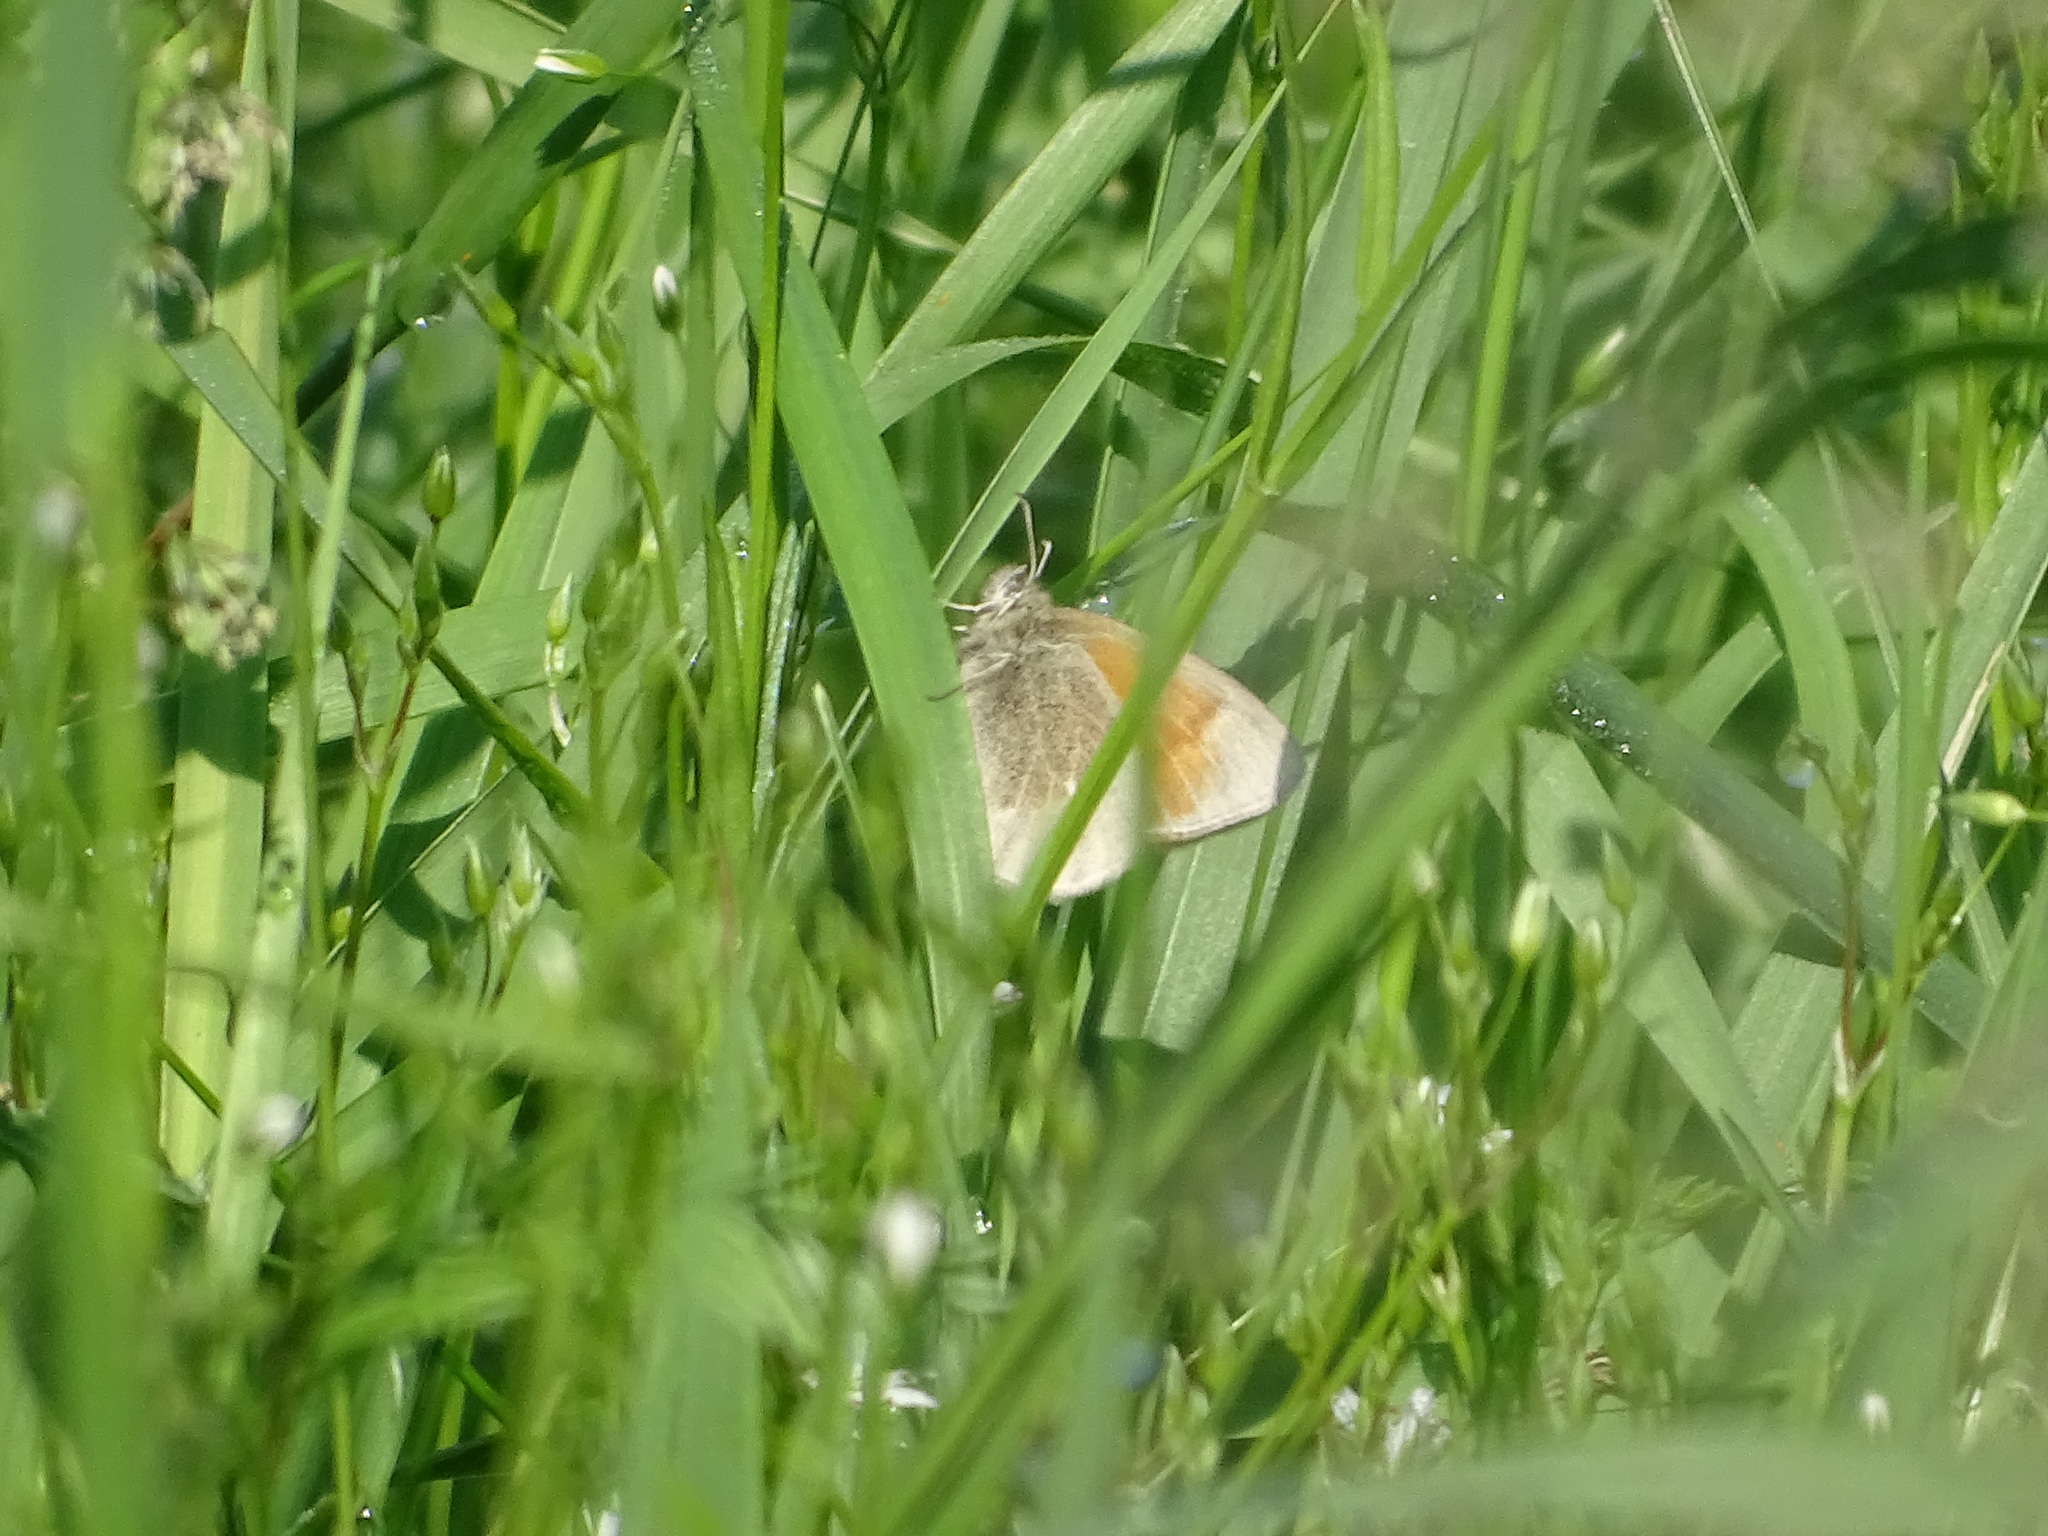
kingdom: Animalia
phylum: Arthropoda
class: Insecta
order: Lepidoptera
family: Nymphalidae
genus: Coenonympha
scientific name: Coenonympha california
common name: Common ringlet
